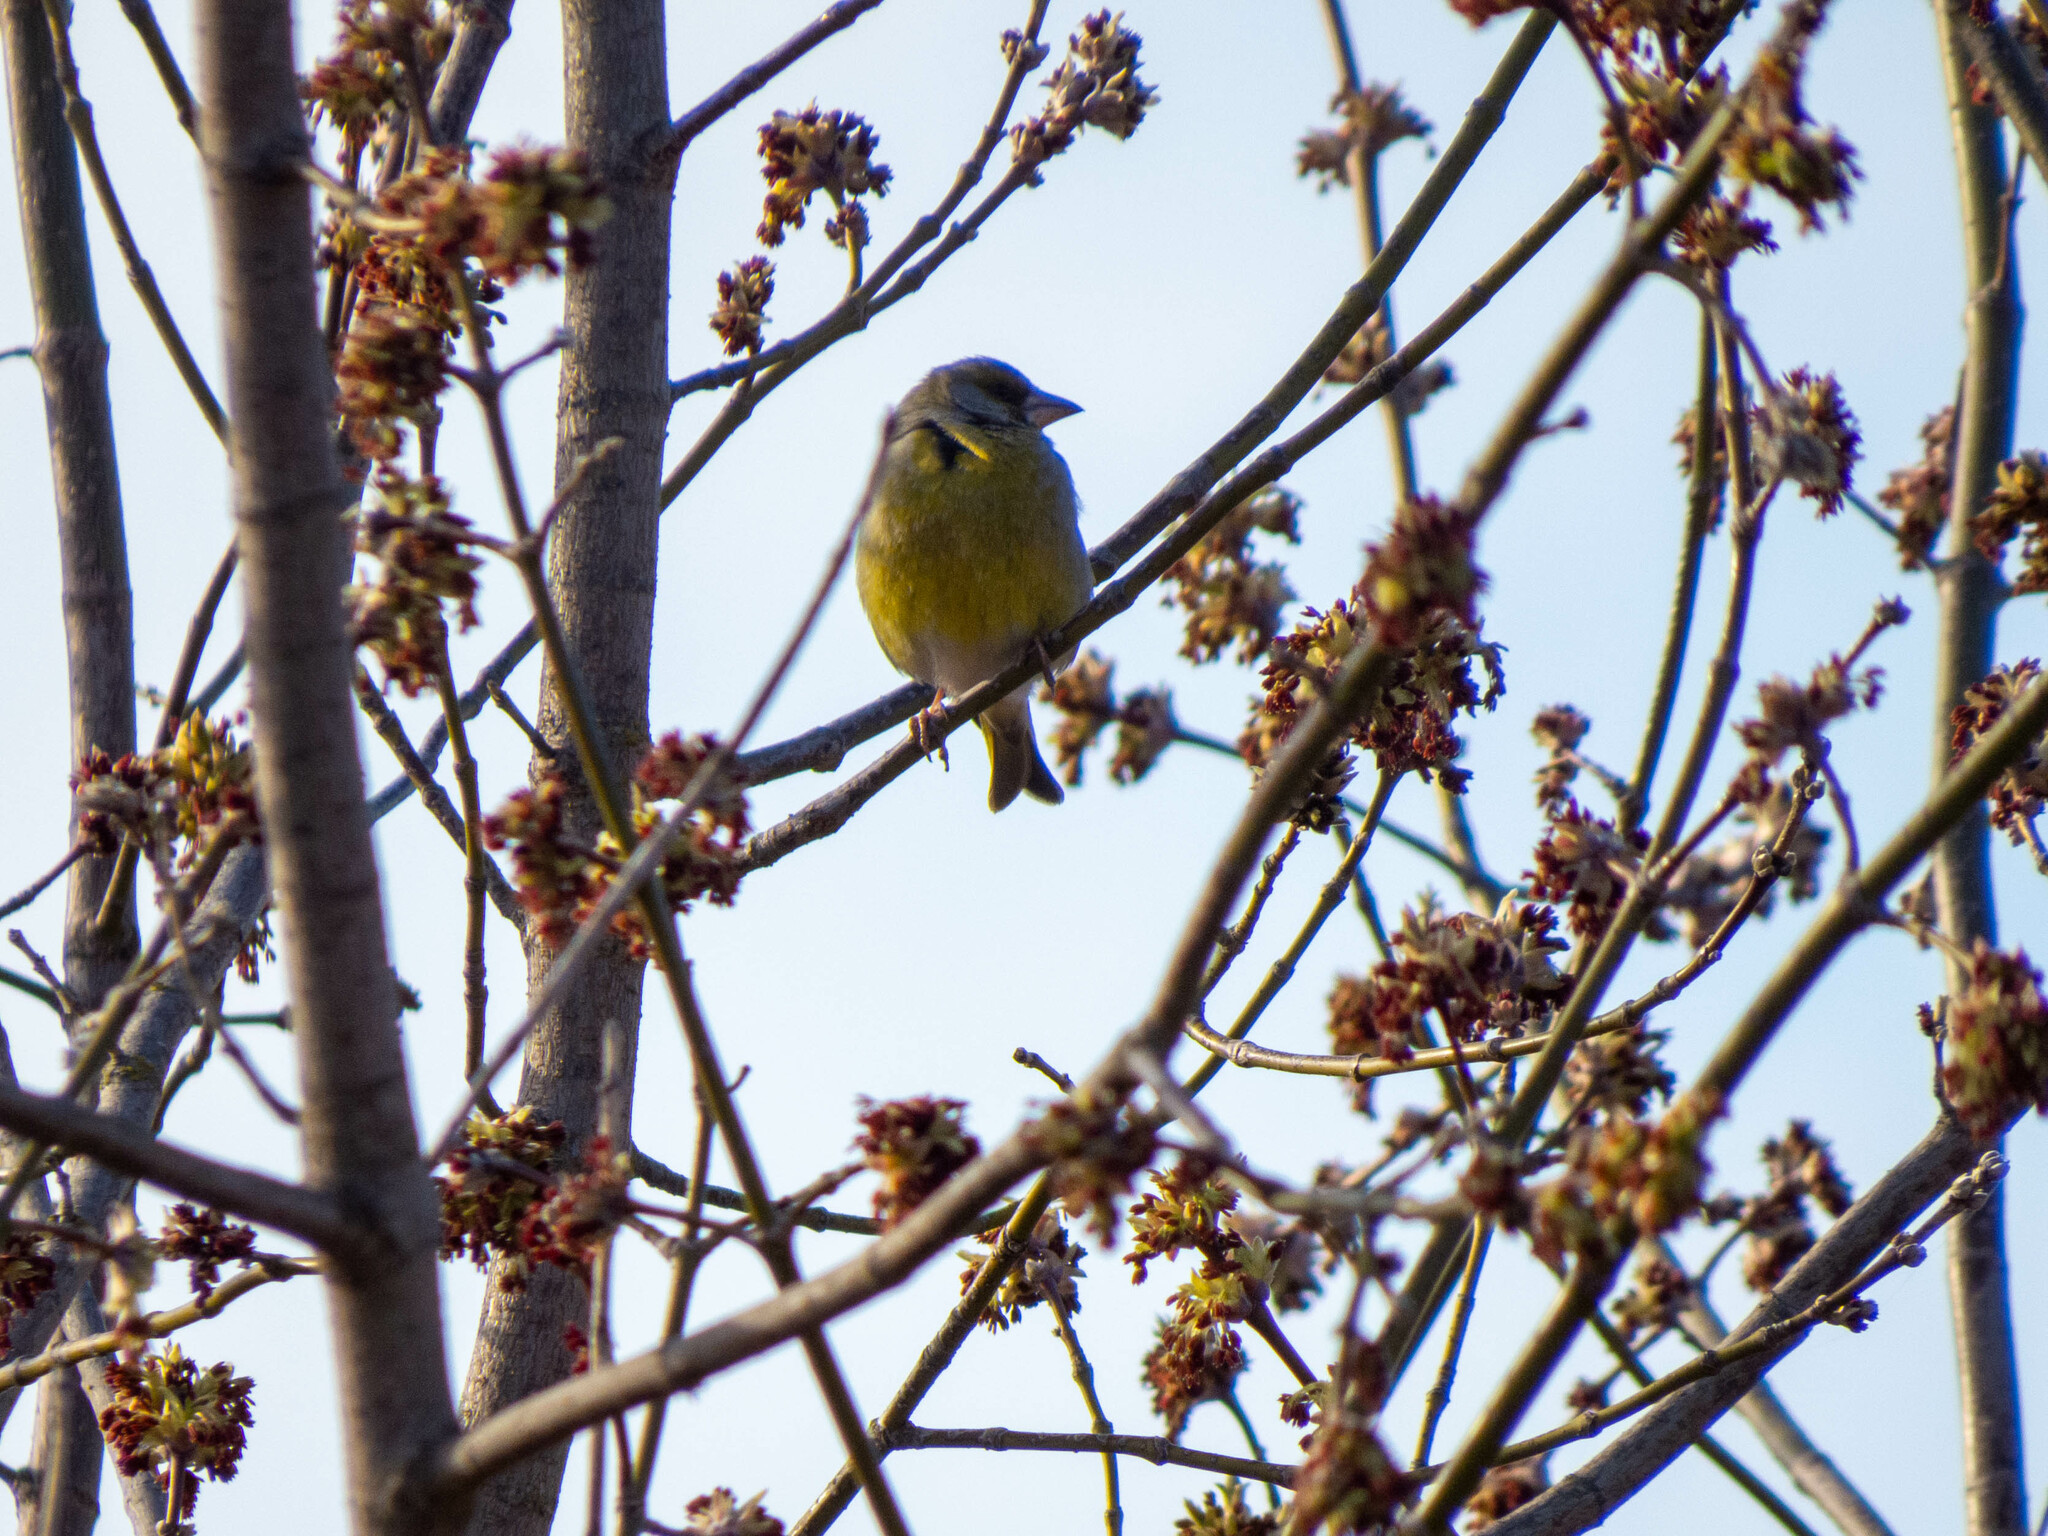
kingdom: Plantae
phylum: Tracheophyta
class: Liliopsida
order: Poales
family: Poaceae
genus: Chloris
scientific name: Chloris chloris
